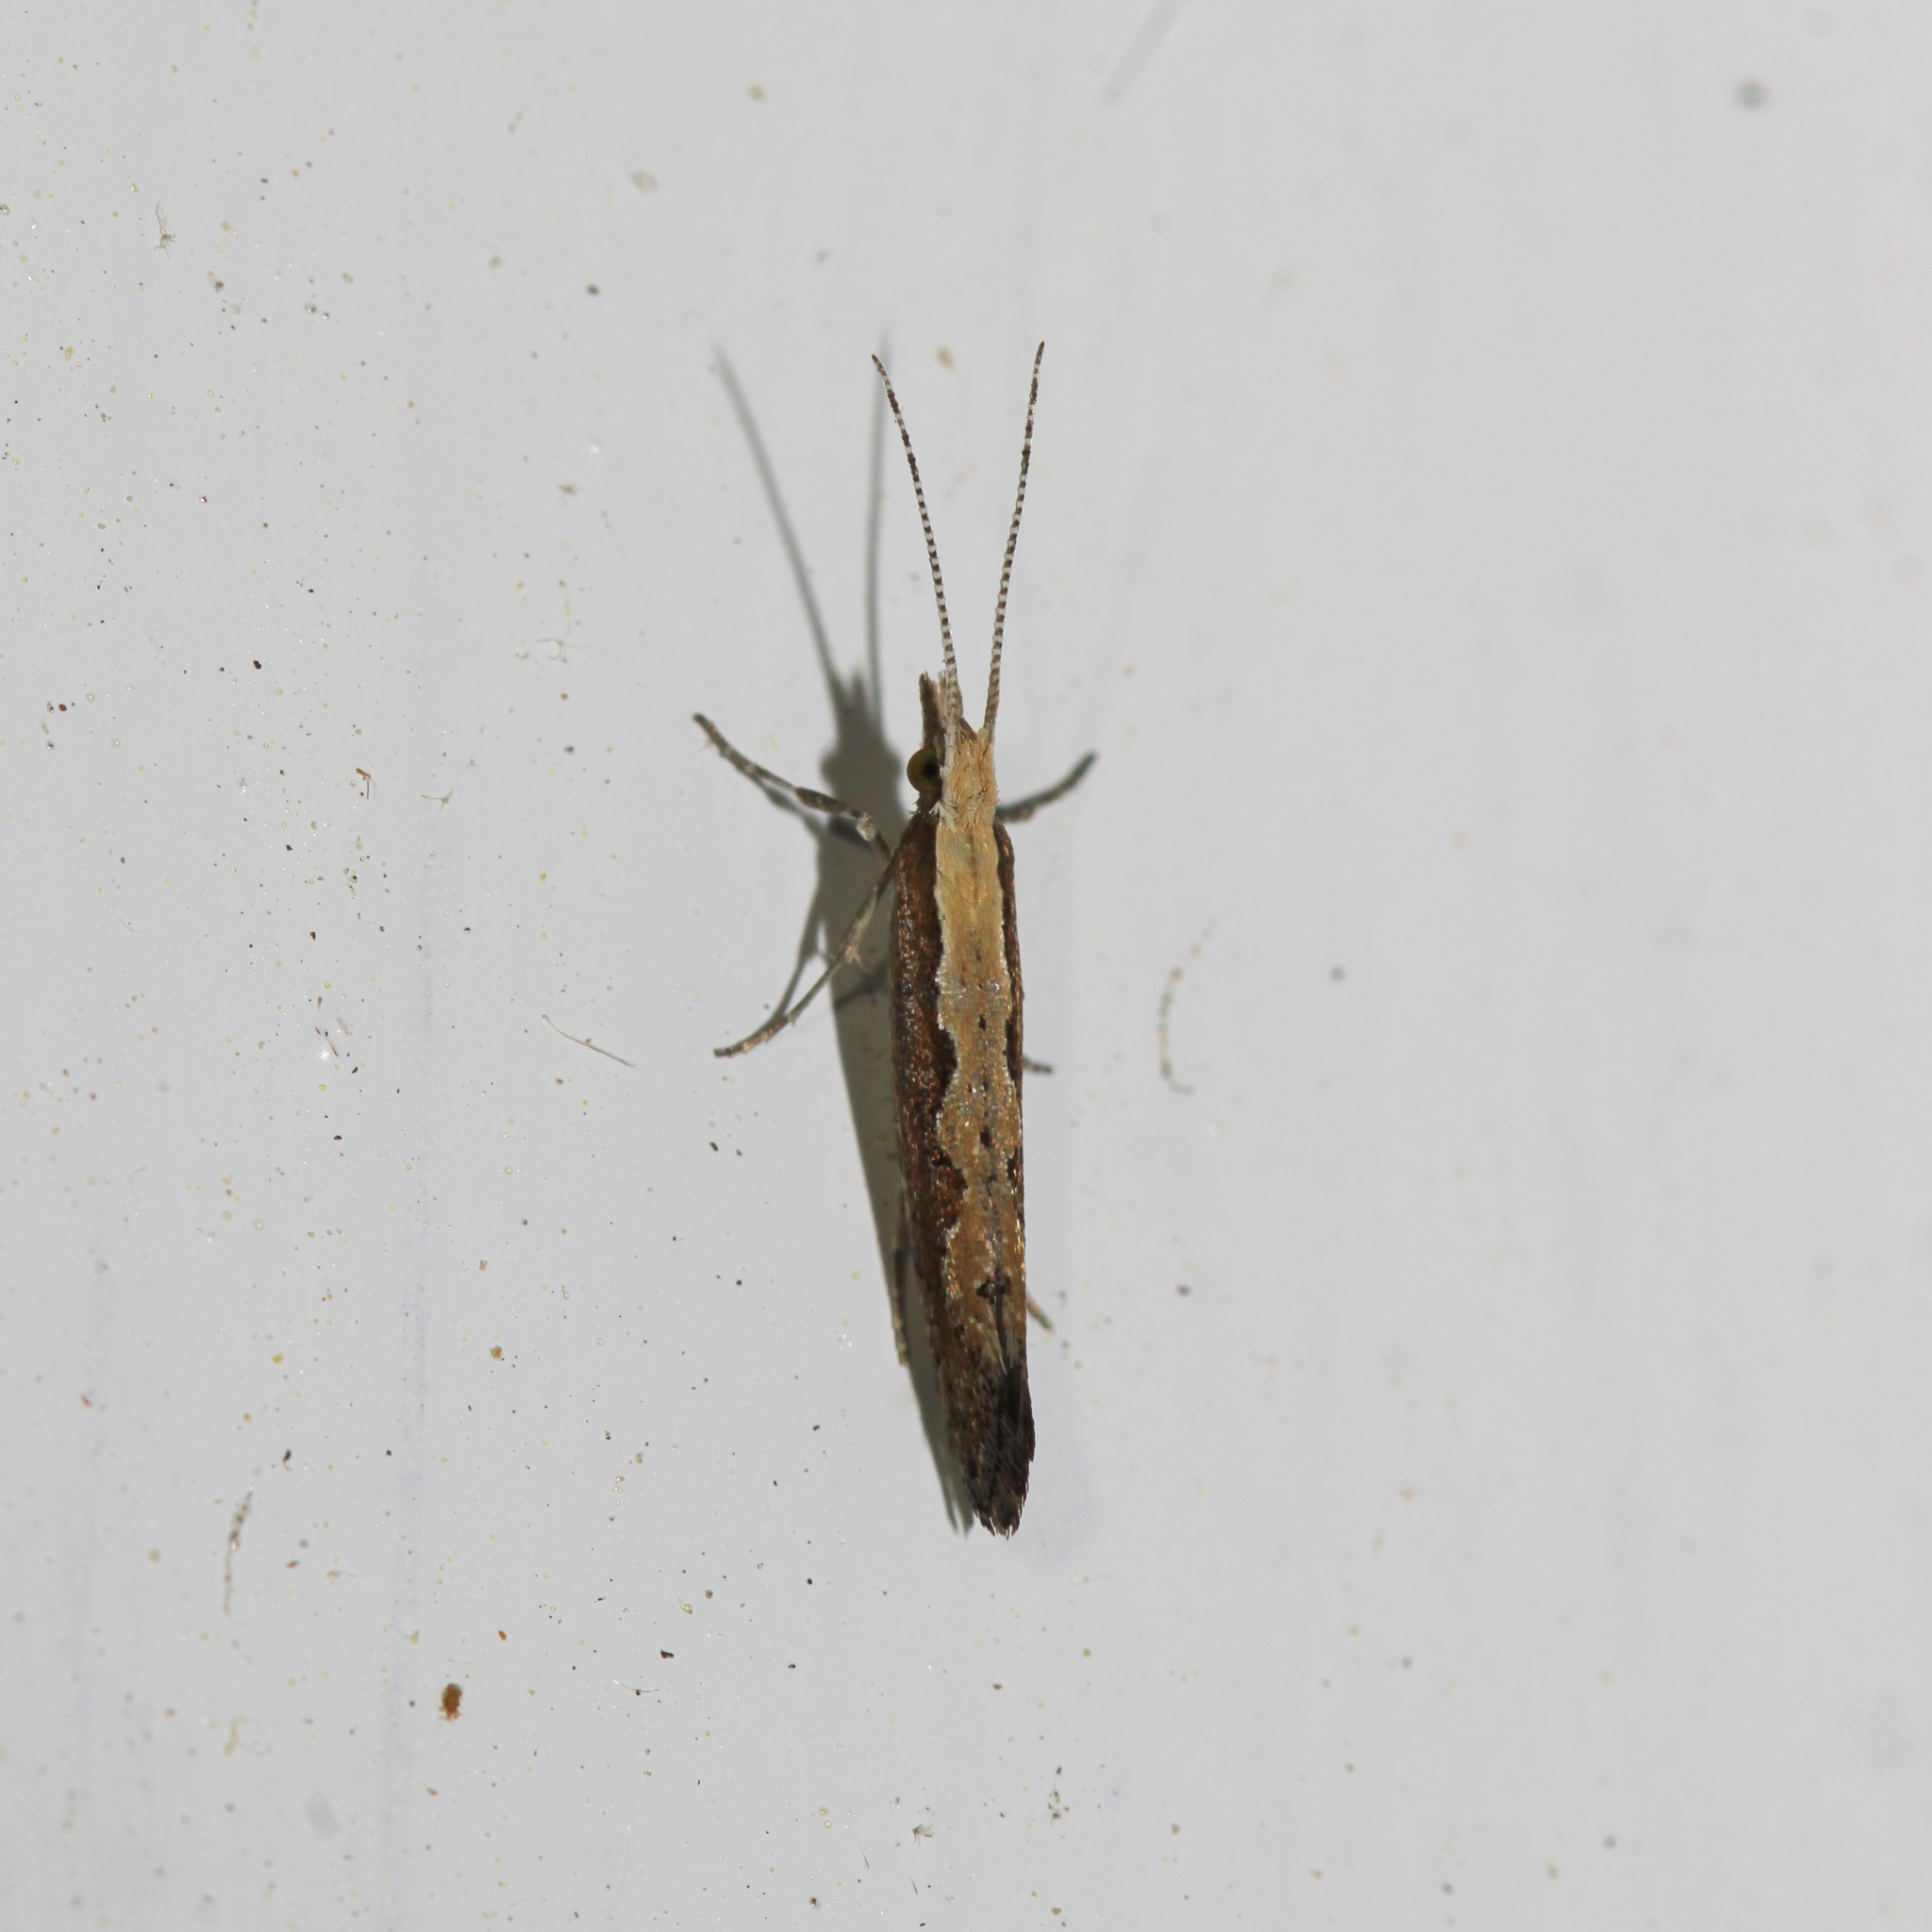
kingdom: Animalia
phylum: Arthropoda
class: Insecta
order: Lepidoptera
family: Plutellidae
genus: Plutella
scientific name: Plutella xylostella
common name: Diamond-back moth
